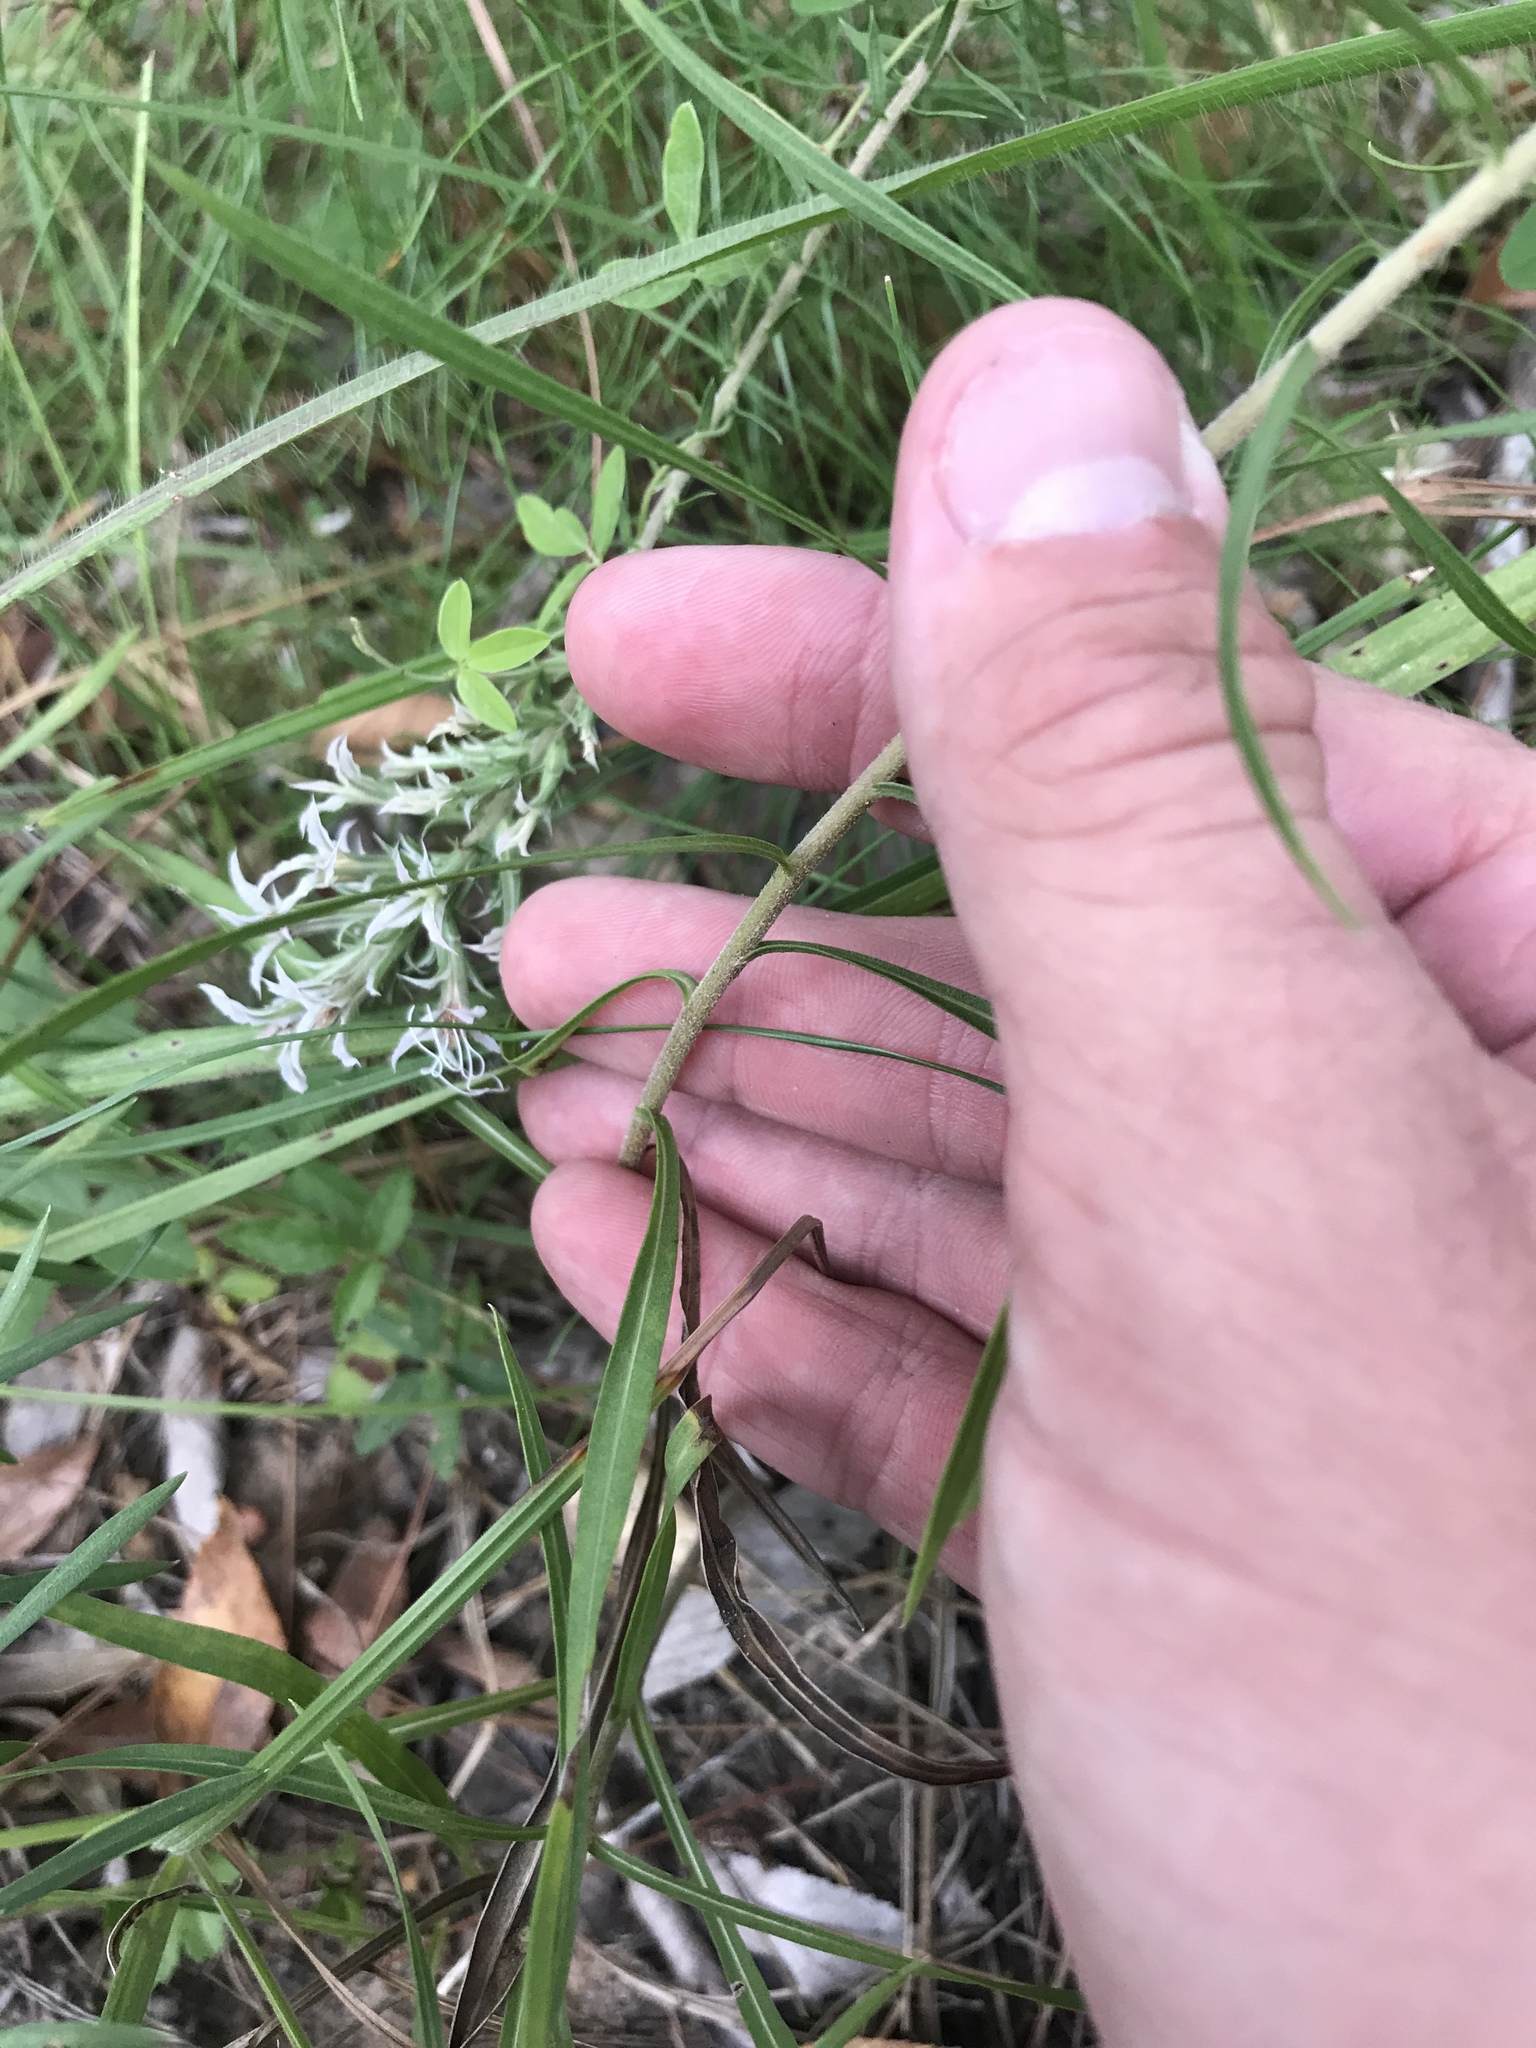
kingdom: Plantae
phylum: Tracheophyta
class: Magnoliopsida
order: Asterales
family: Asteraceae
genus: Liatris
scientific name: Liatris hesperelegans
